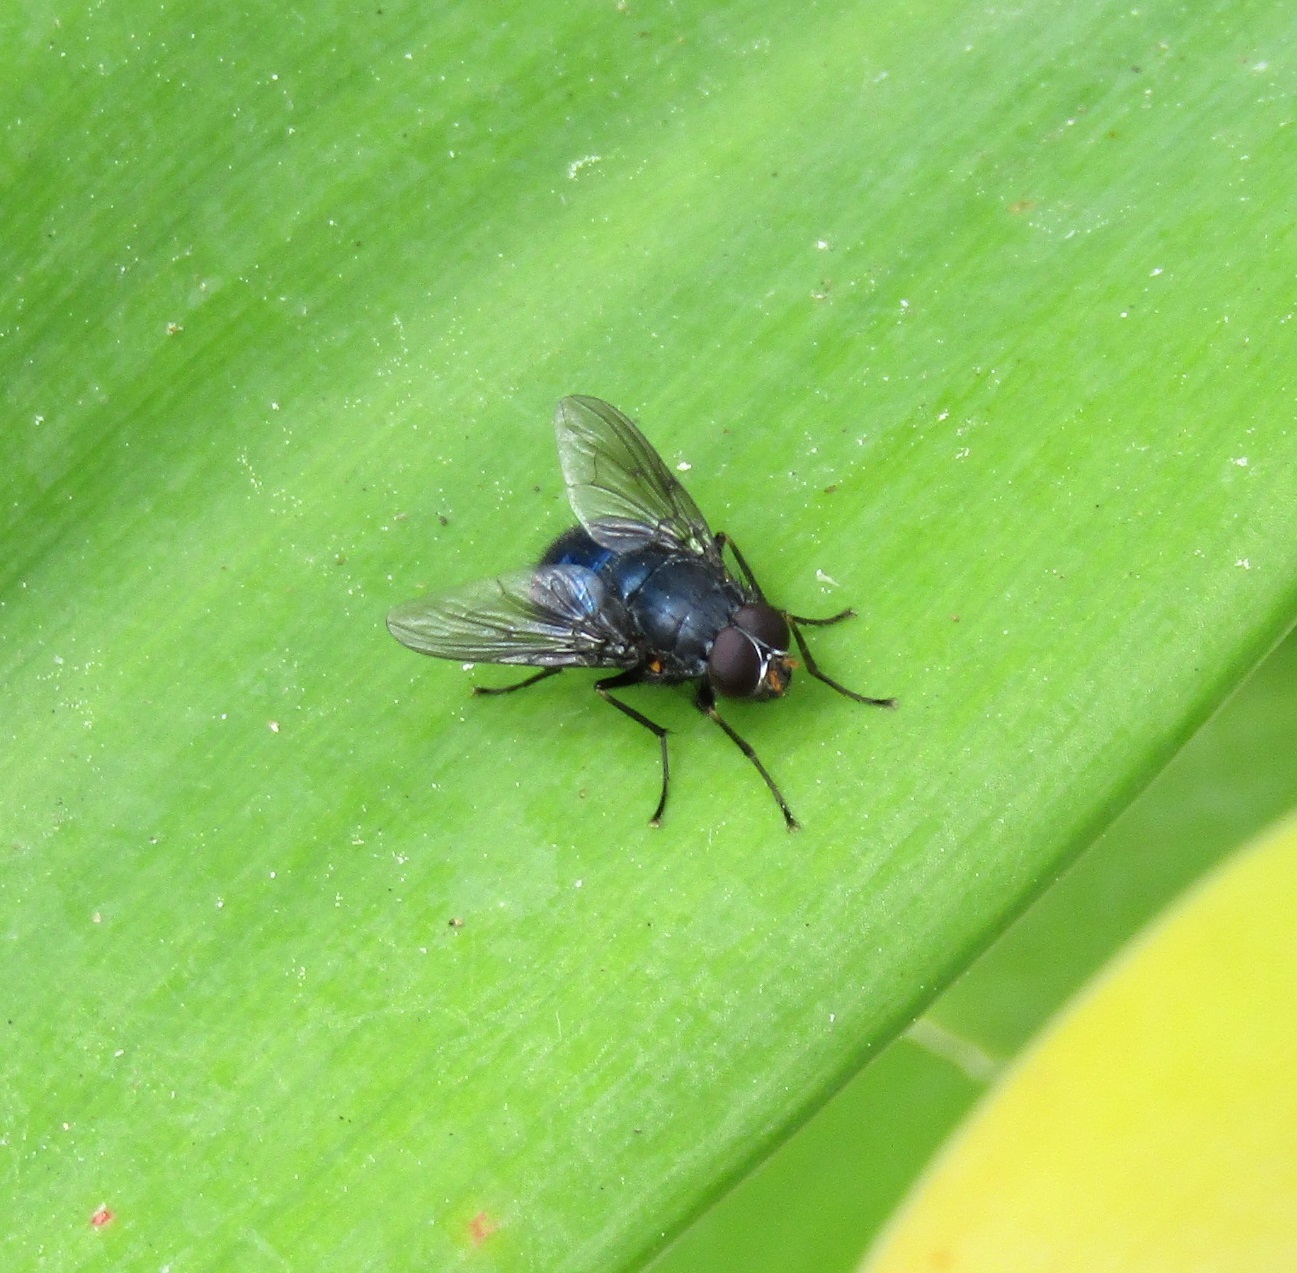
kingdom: Animalia
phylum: Arthropoda
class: Insecta
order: Diptera
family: Muscidae
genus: Calliphoroides
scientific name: Calliphoroides antennatis
